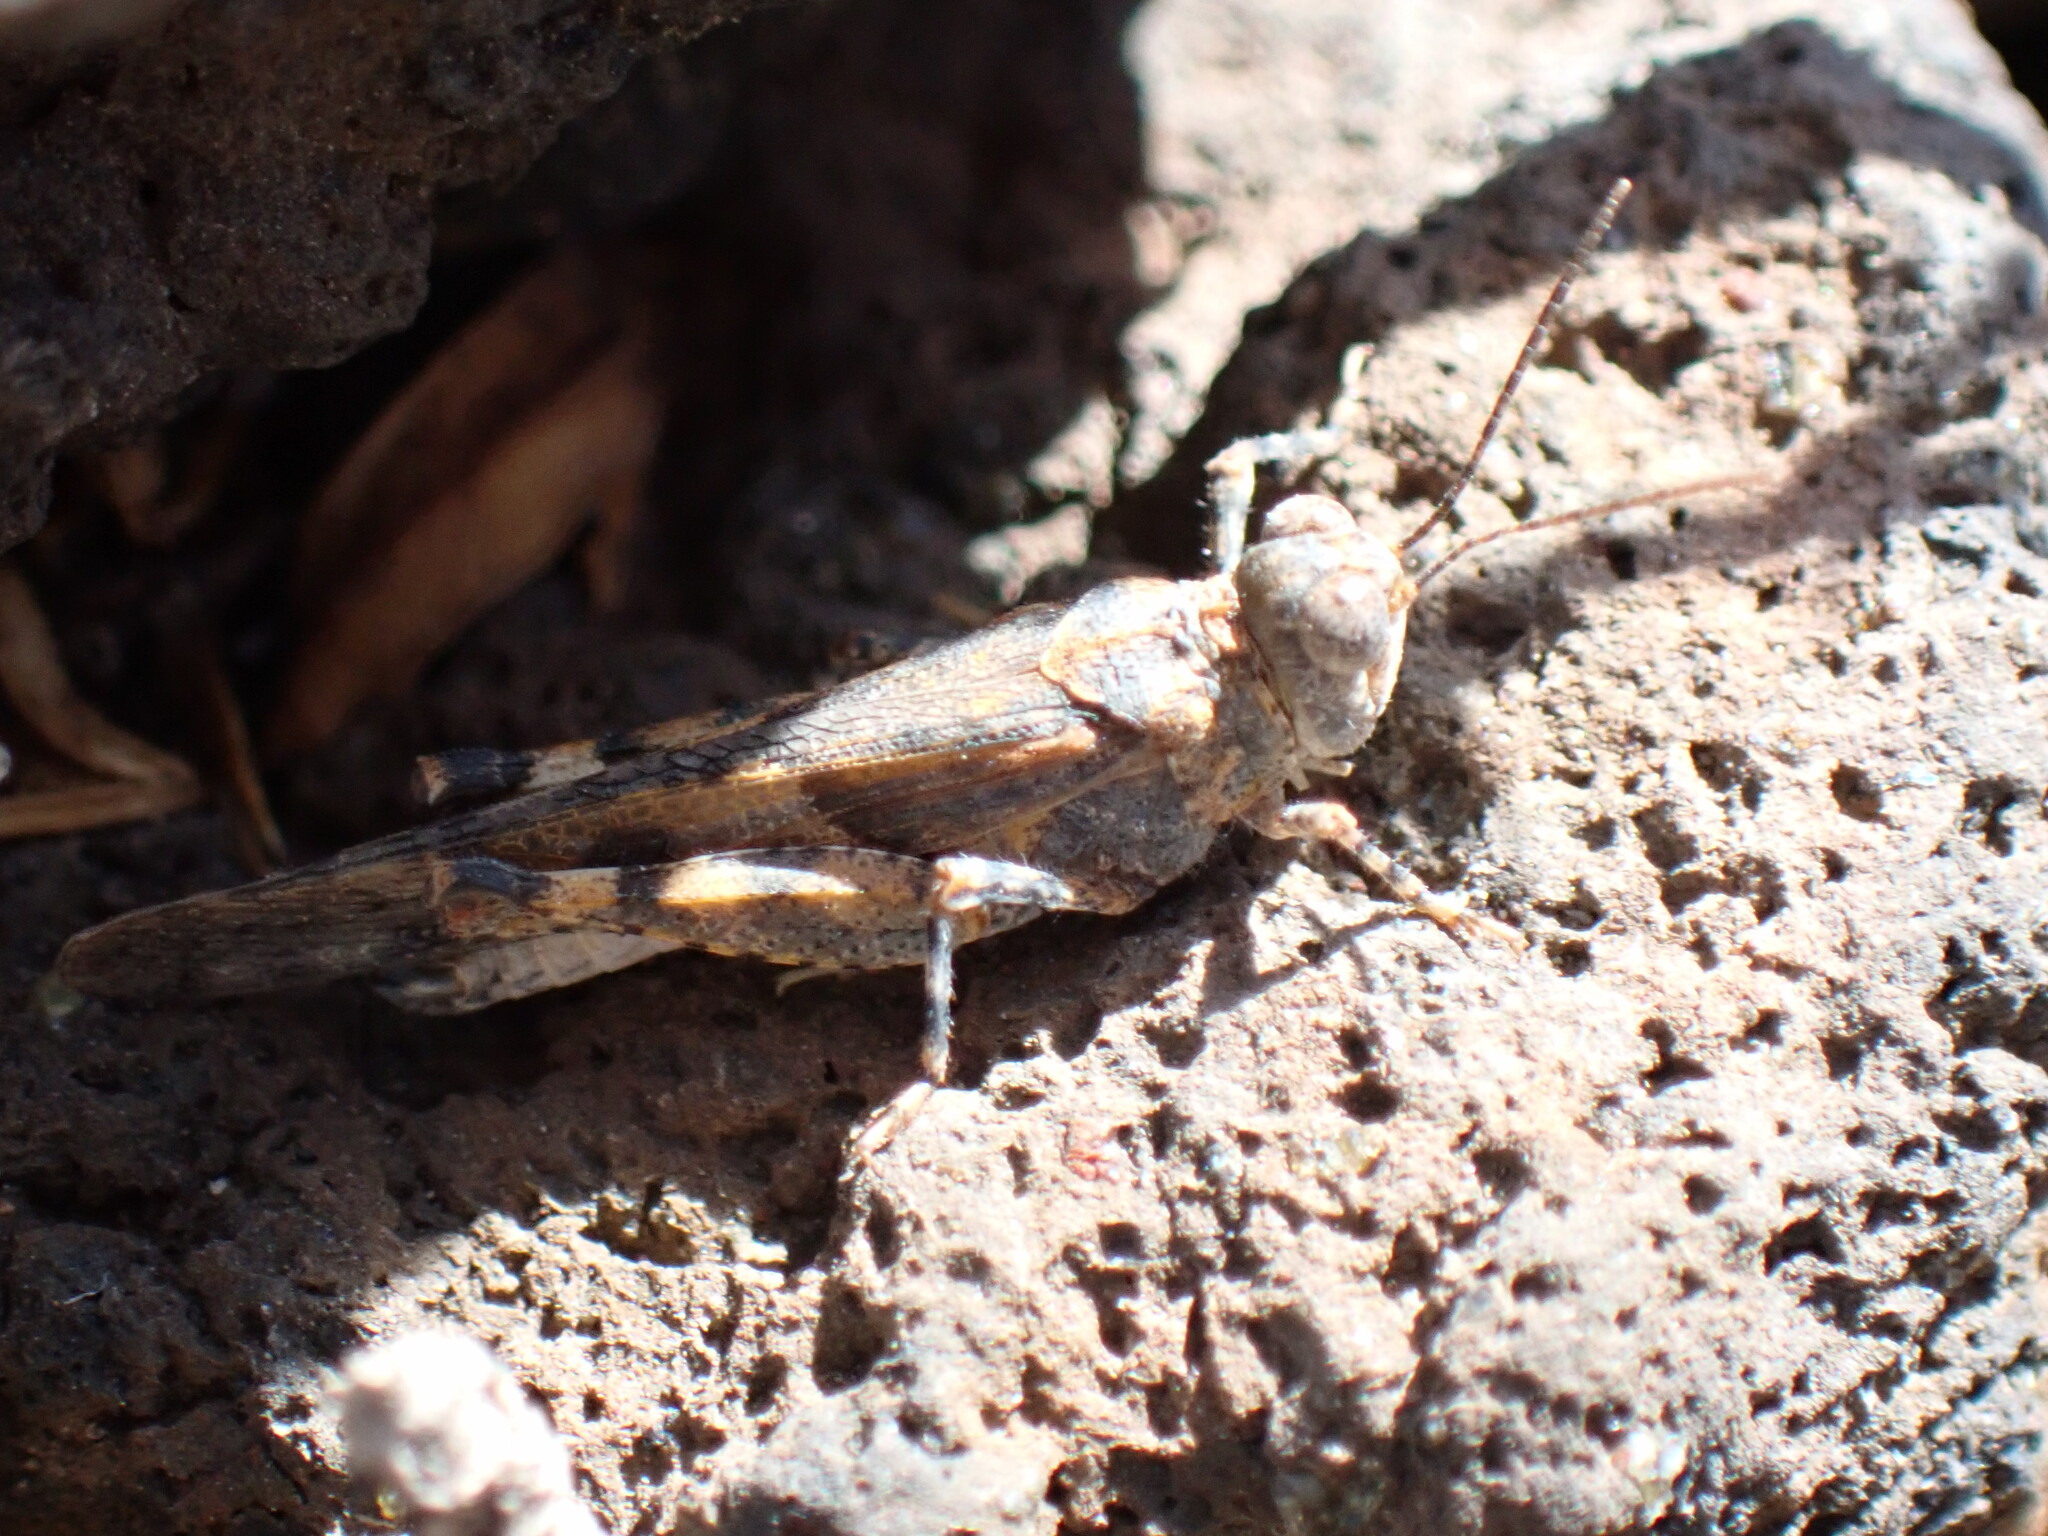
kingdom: Animalia
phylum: Arthropoda
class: Insecta
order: Orthoptera
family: Acrididae
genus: Sphingonotus
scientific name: Sphingonotus picteti
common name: Tenerife sand grasshopper
